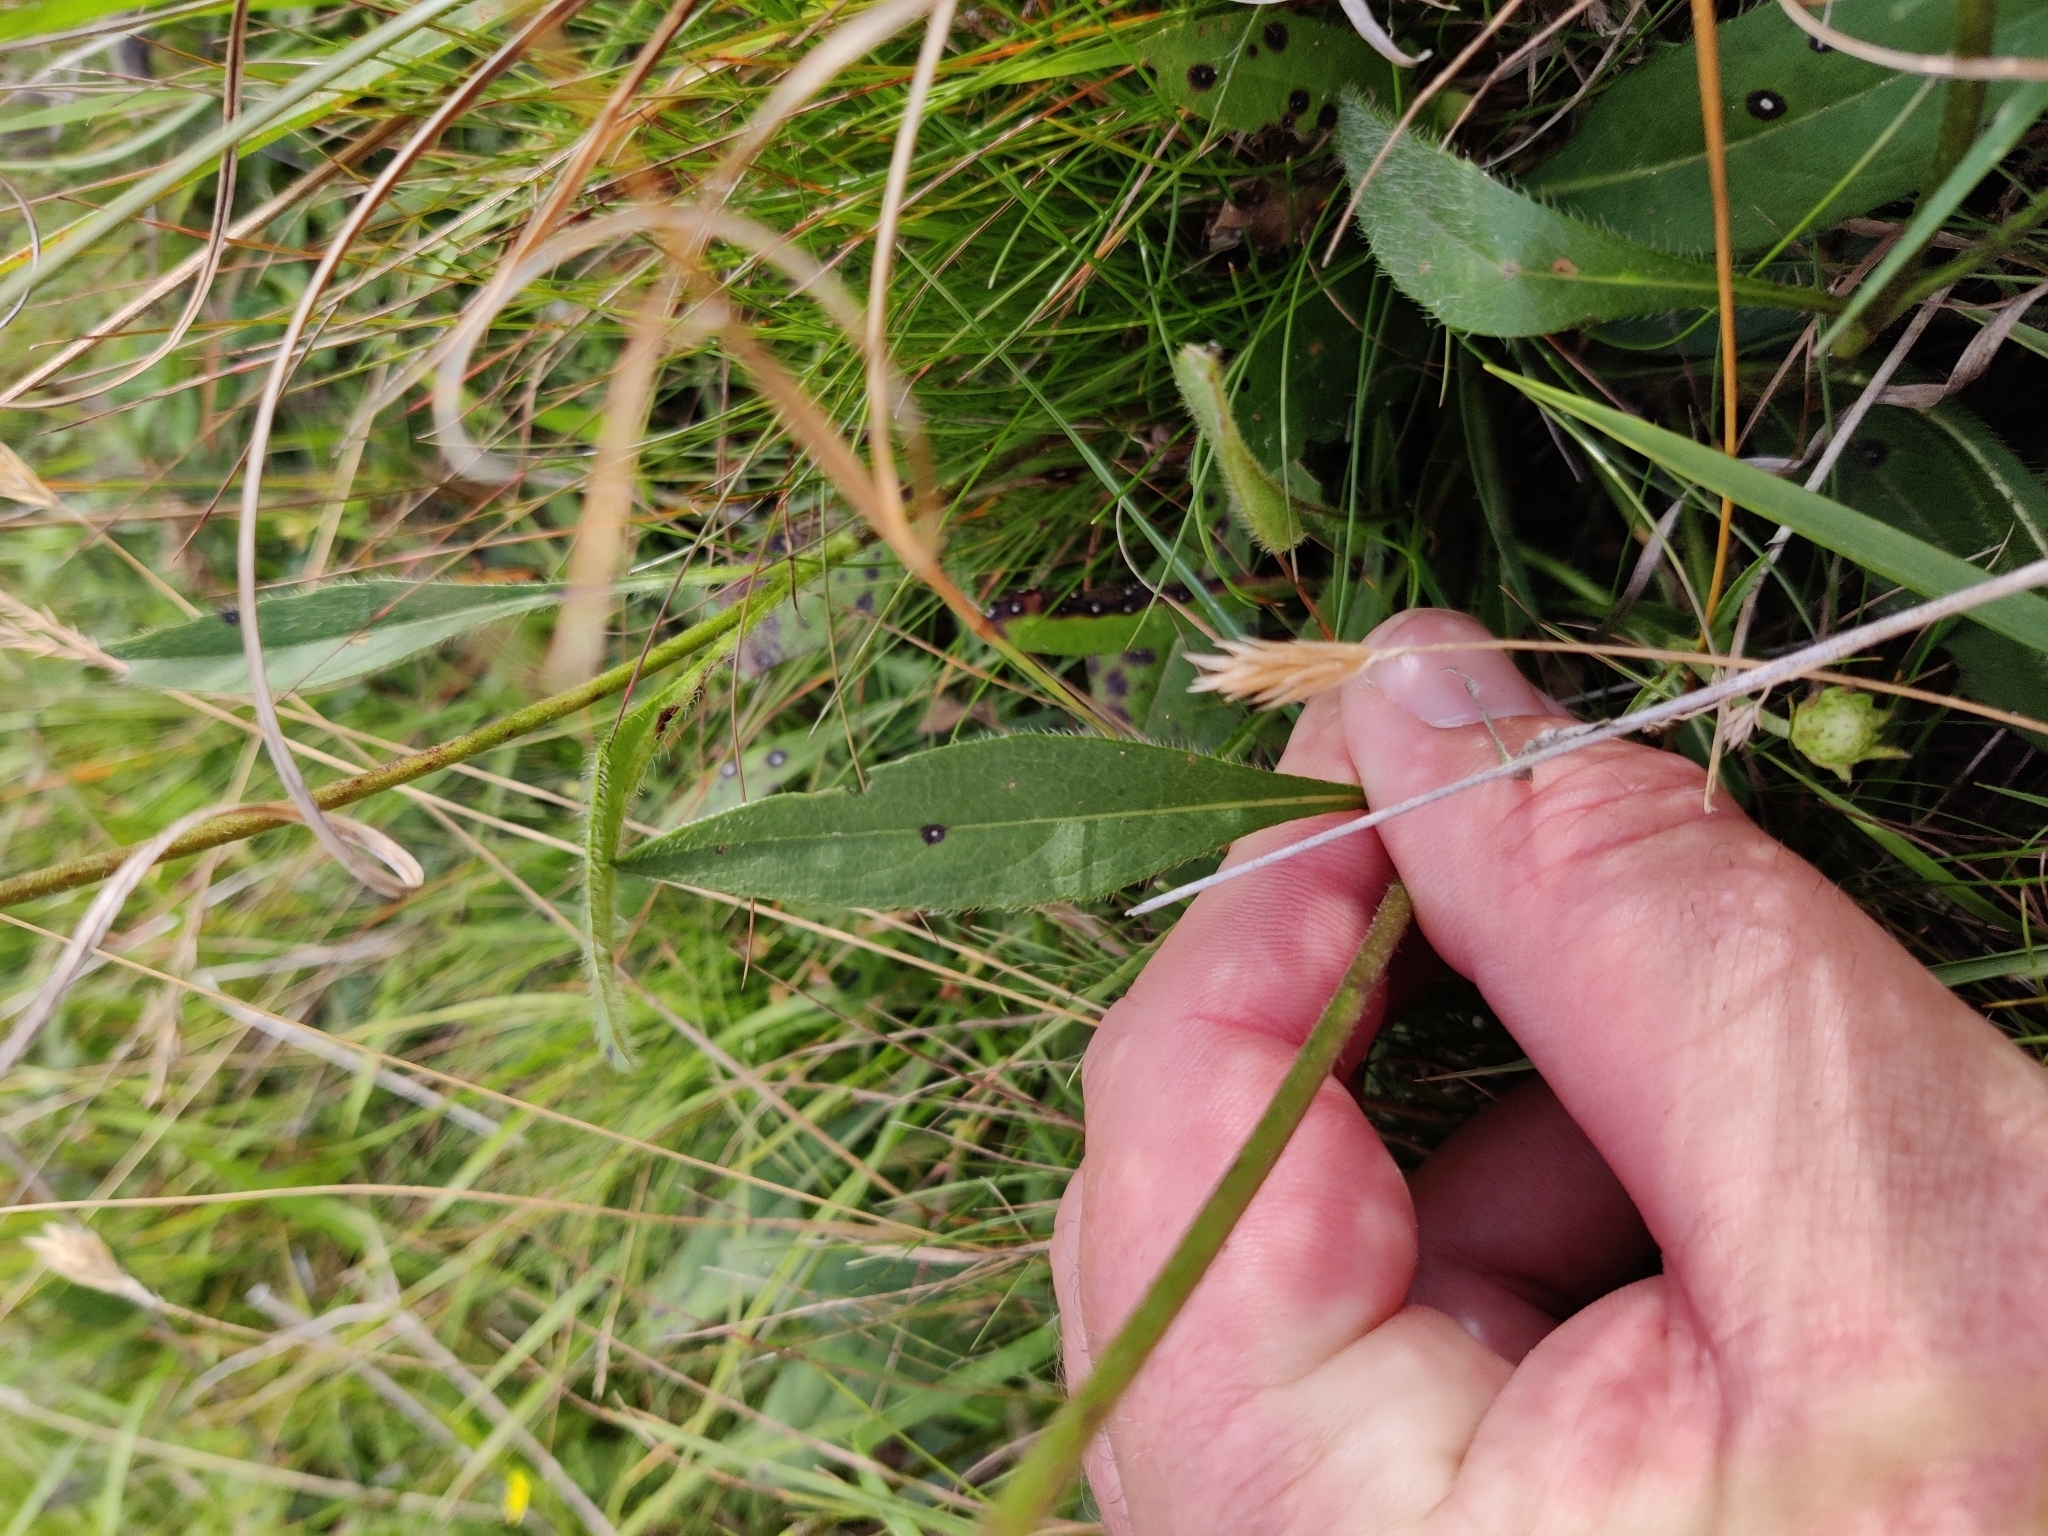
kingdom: Plantae
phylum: Tracheophyta
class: Magnoliopsida
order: Dipsacales
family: Caprifoliaceae
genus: Succisa
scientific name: Succisa pratensis
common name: Devil's-bit
